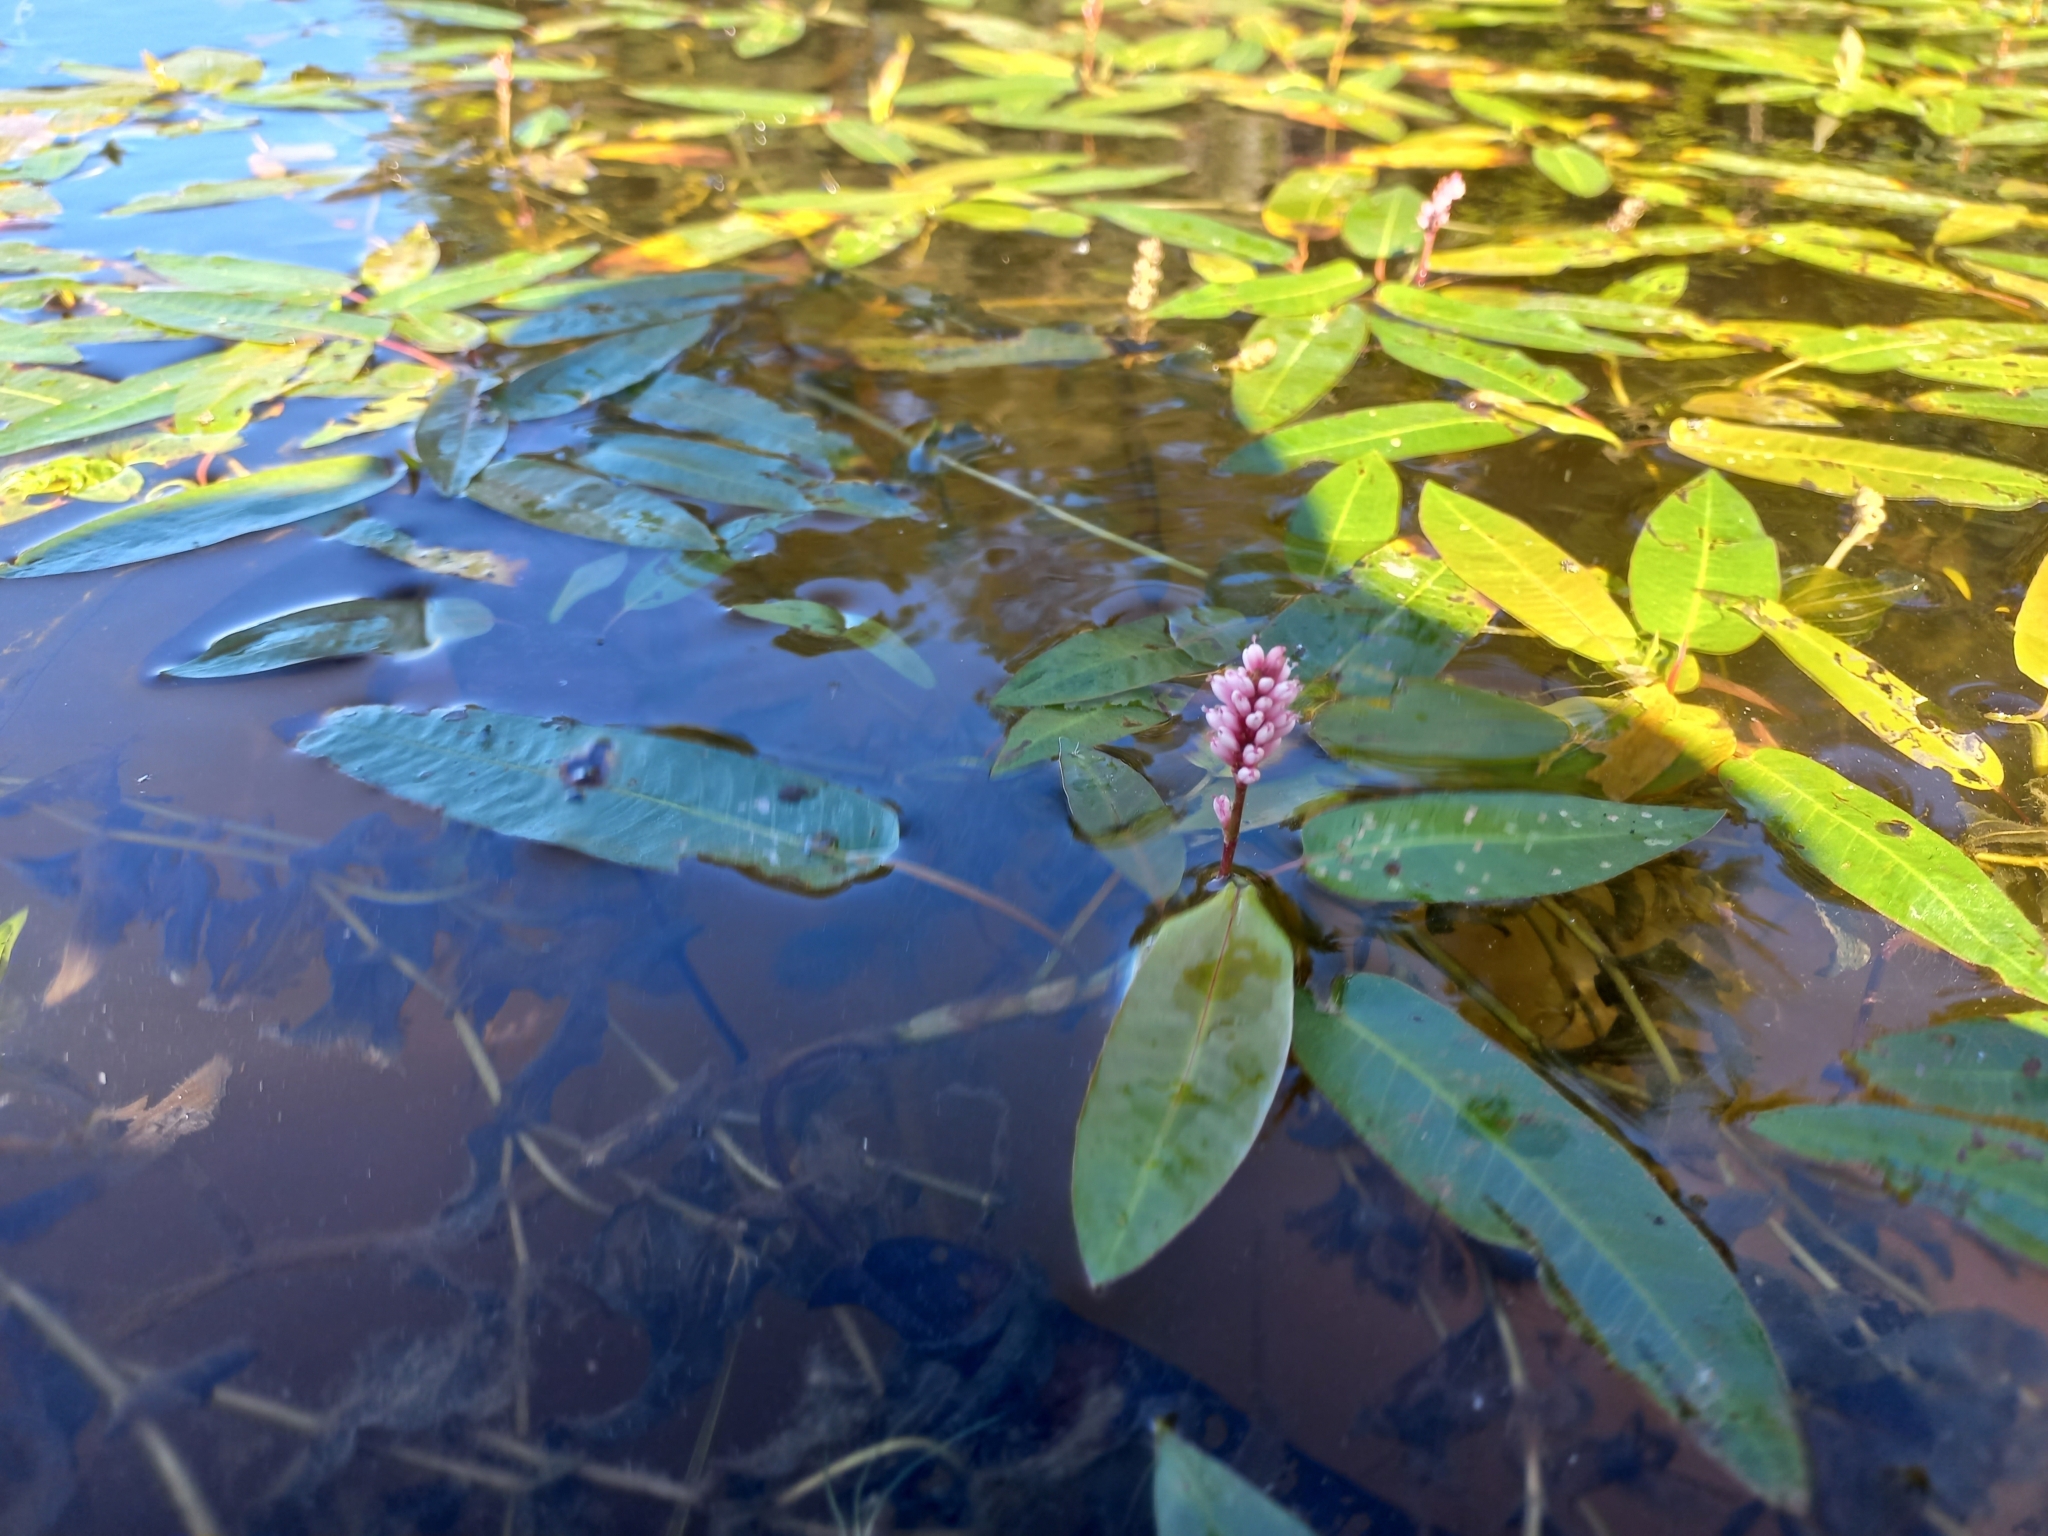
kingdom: Plantae
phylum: Tracheophyta
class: Magnoliopsida
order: Caryophyllales
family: Polygonaceae
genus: Persicaria
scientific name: Persicaria amphibia
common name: Amphibious bistort
